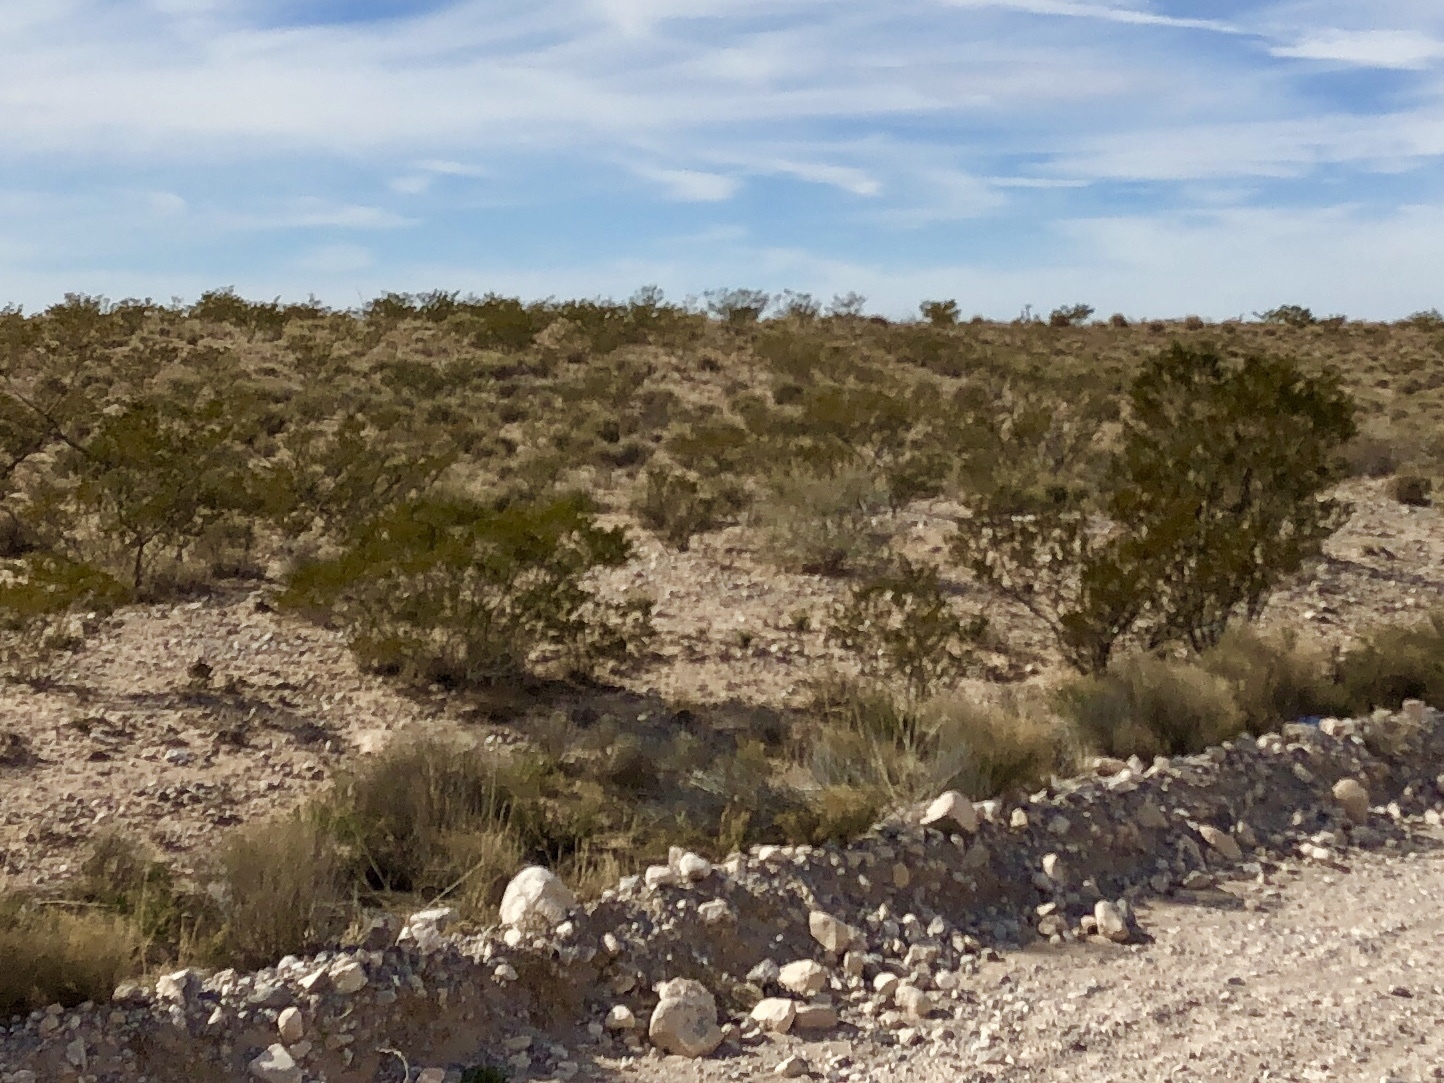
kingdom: Plantae
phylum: Tracheophyta
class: Magnoliopsida
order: Zygophyllales
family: Zygophyllaceae
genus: Larrea
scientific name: Larrea tridentata
